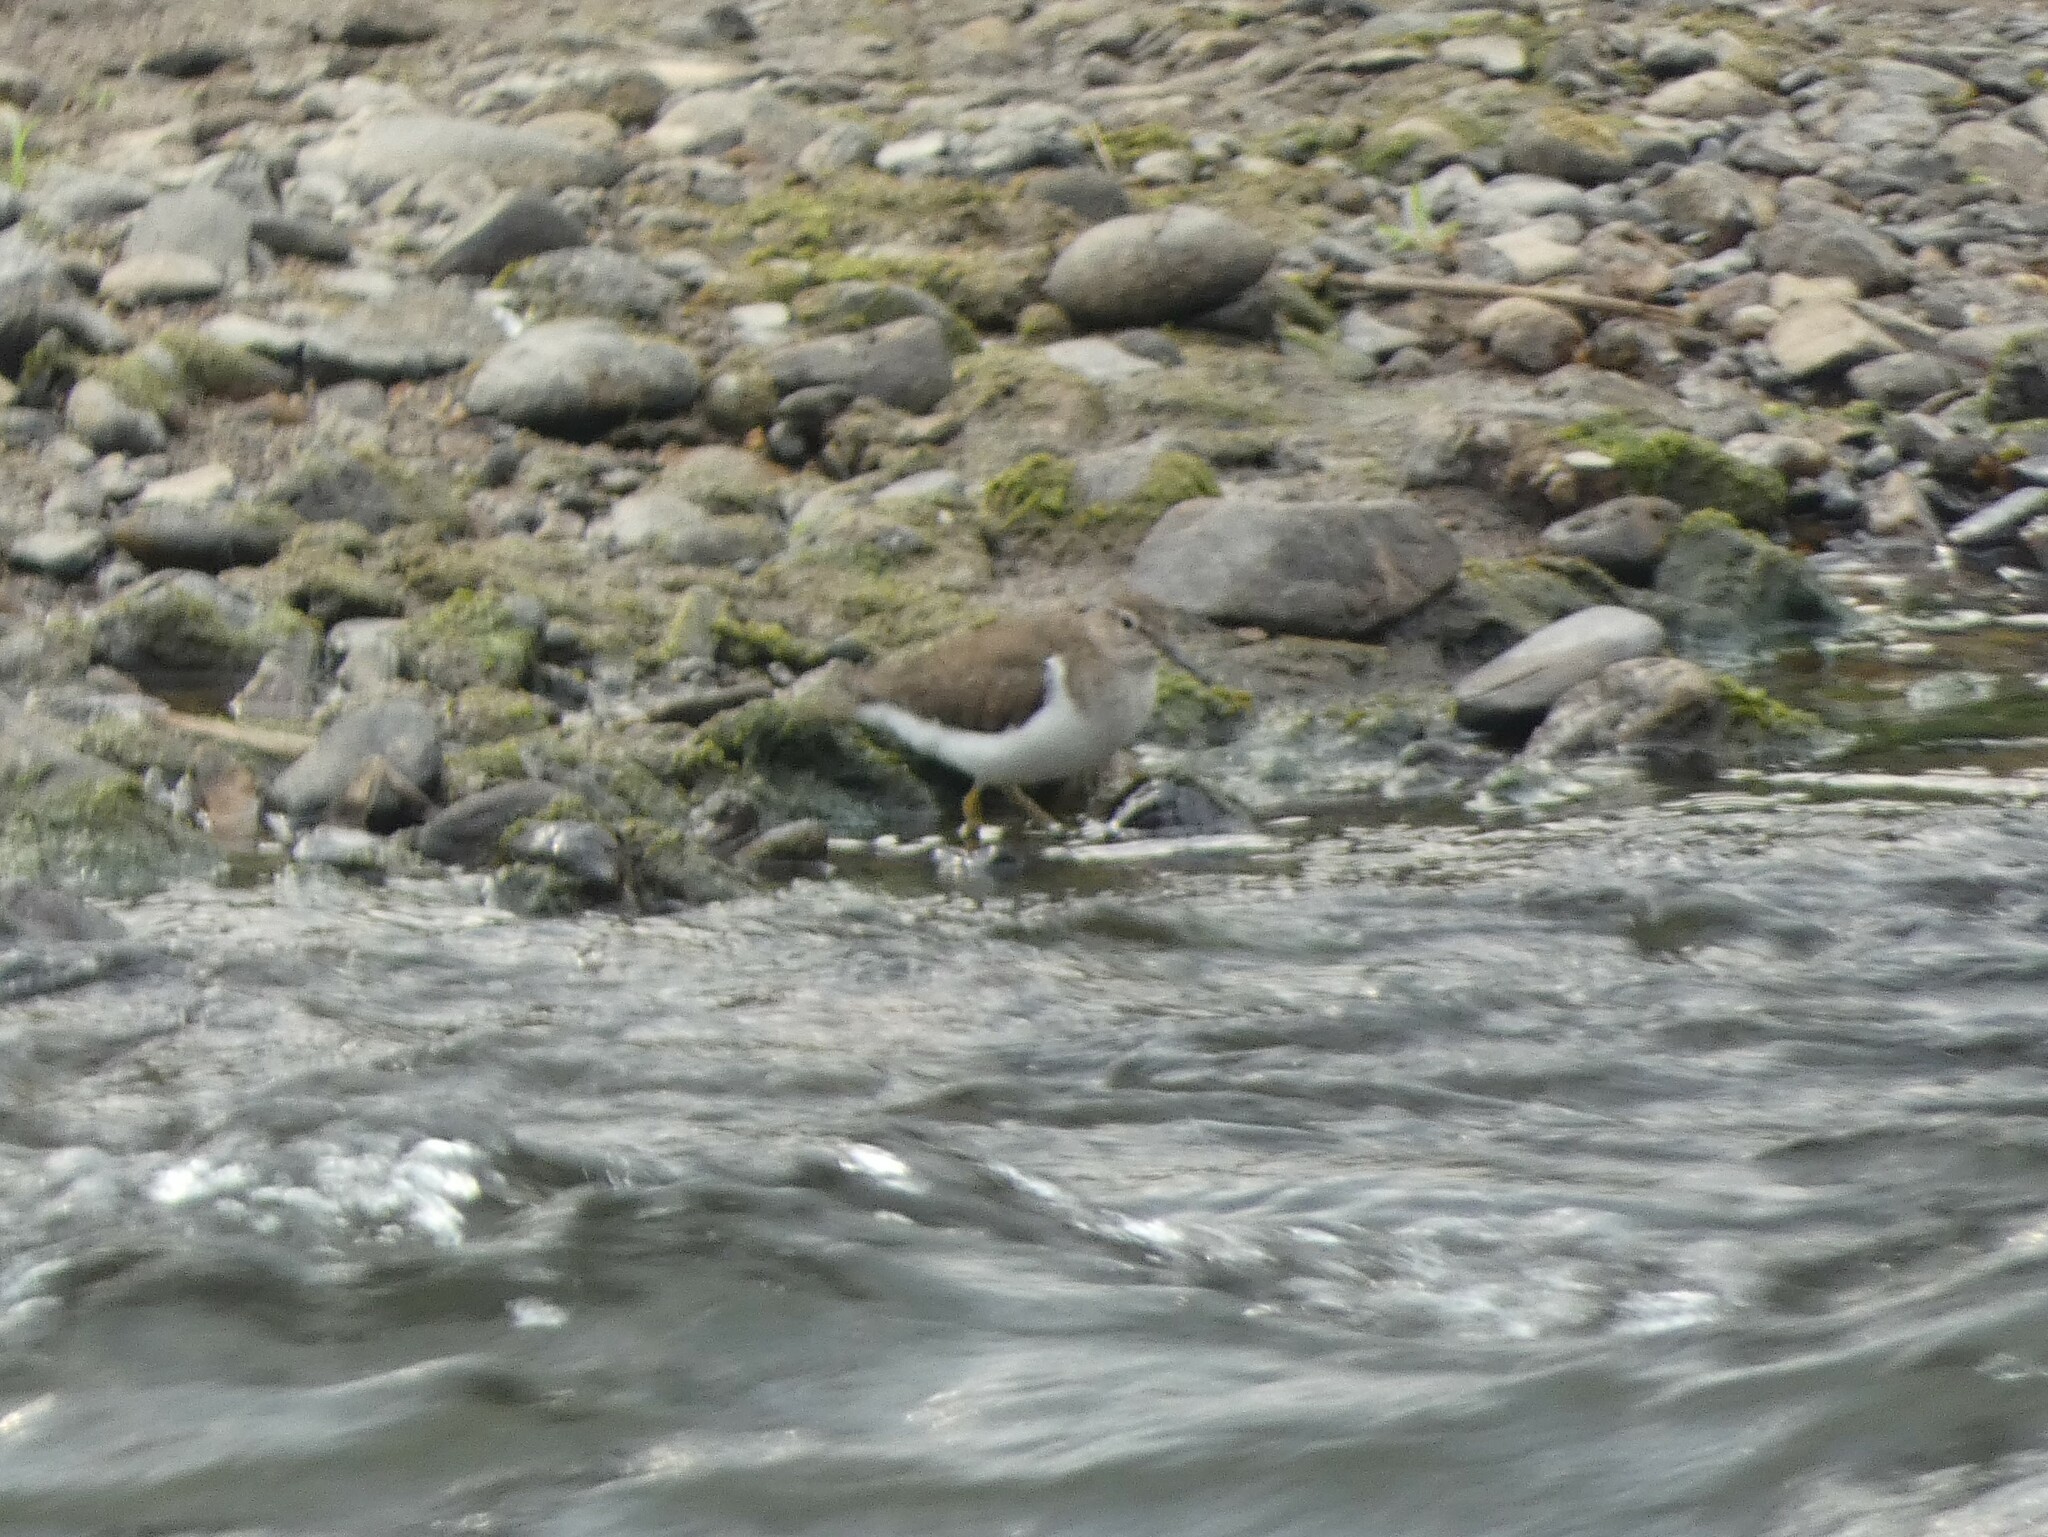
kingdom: Animalia
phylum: Chordata
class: Aves
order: Charadriiformes
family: Scolopacidae
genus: Actitis
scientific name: Actitis hypoleucos
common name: Common sandpiper
